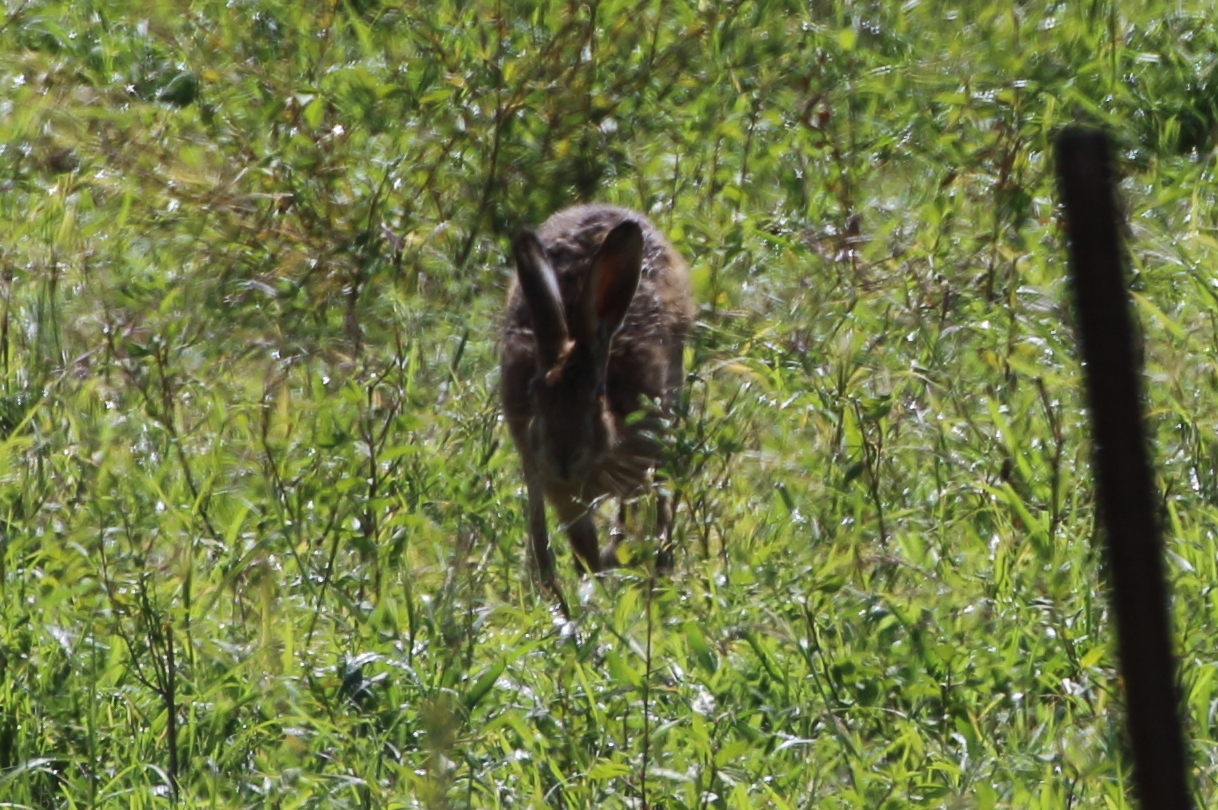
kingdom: Animalia
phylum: Chordata
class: Mammalia
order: Lagomorpha
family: Leporidae
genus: Lepus
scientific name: Lepus europaeus
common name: European hare
